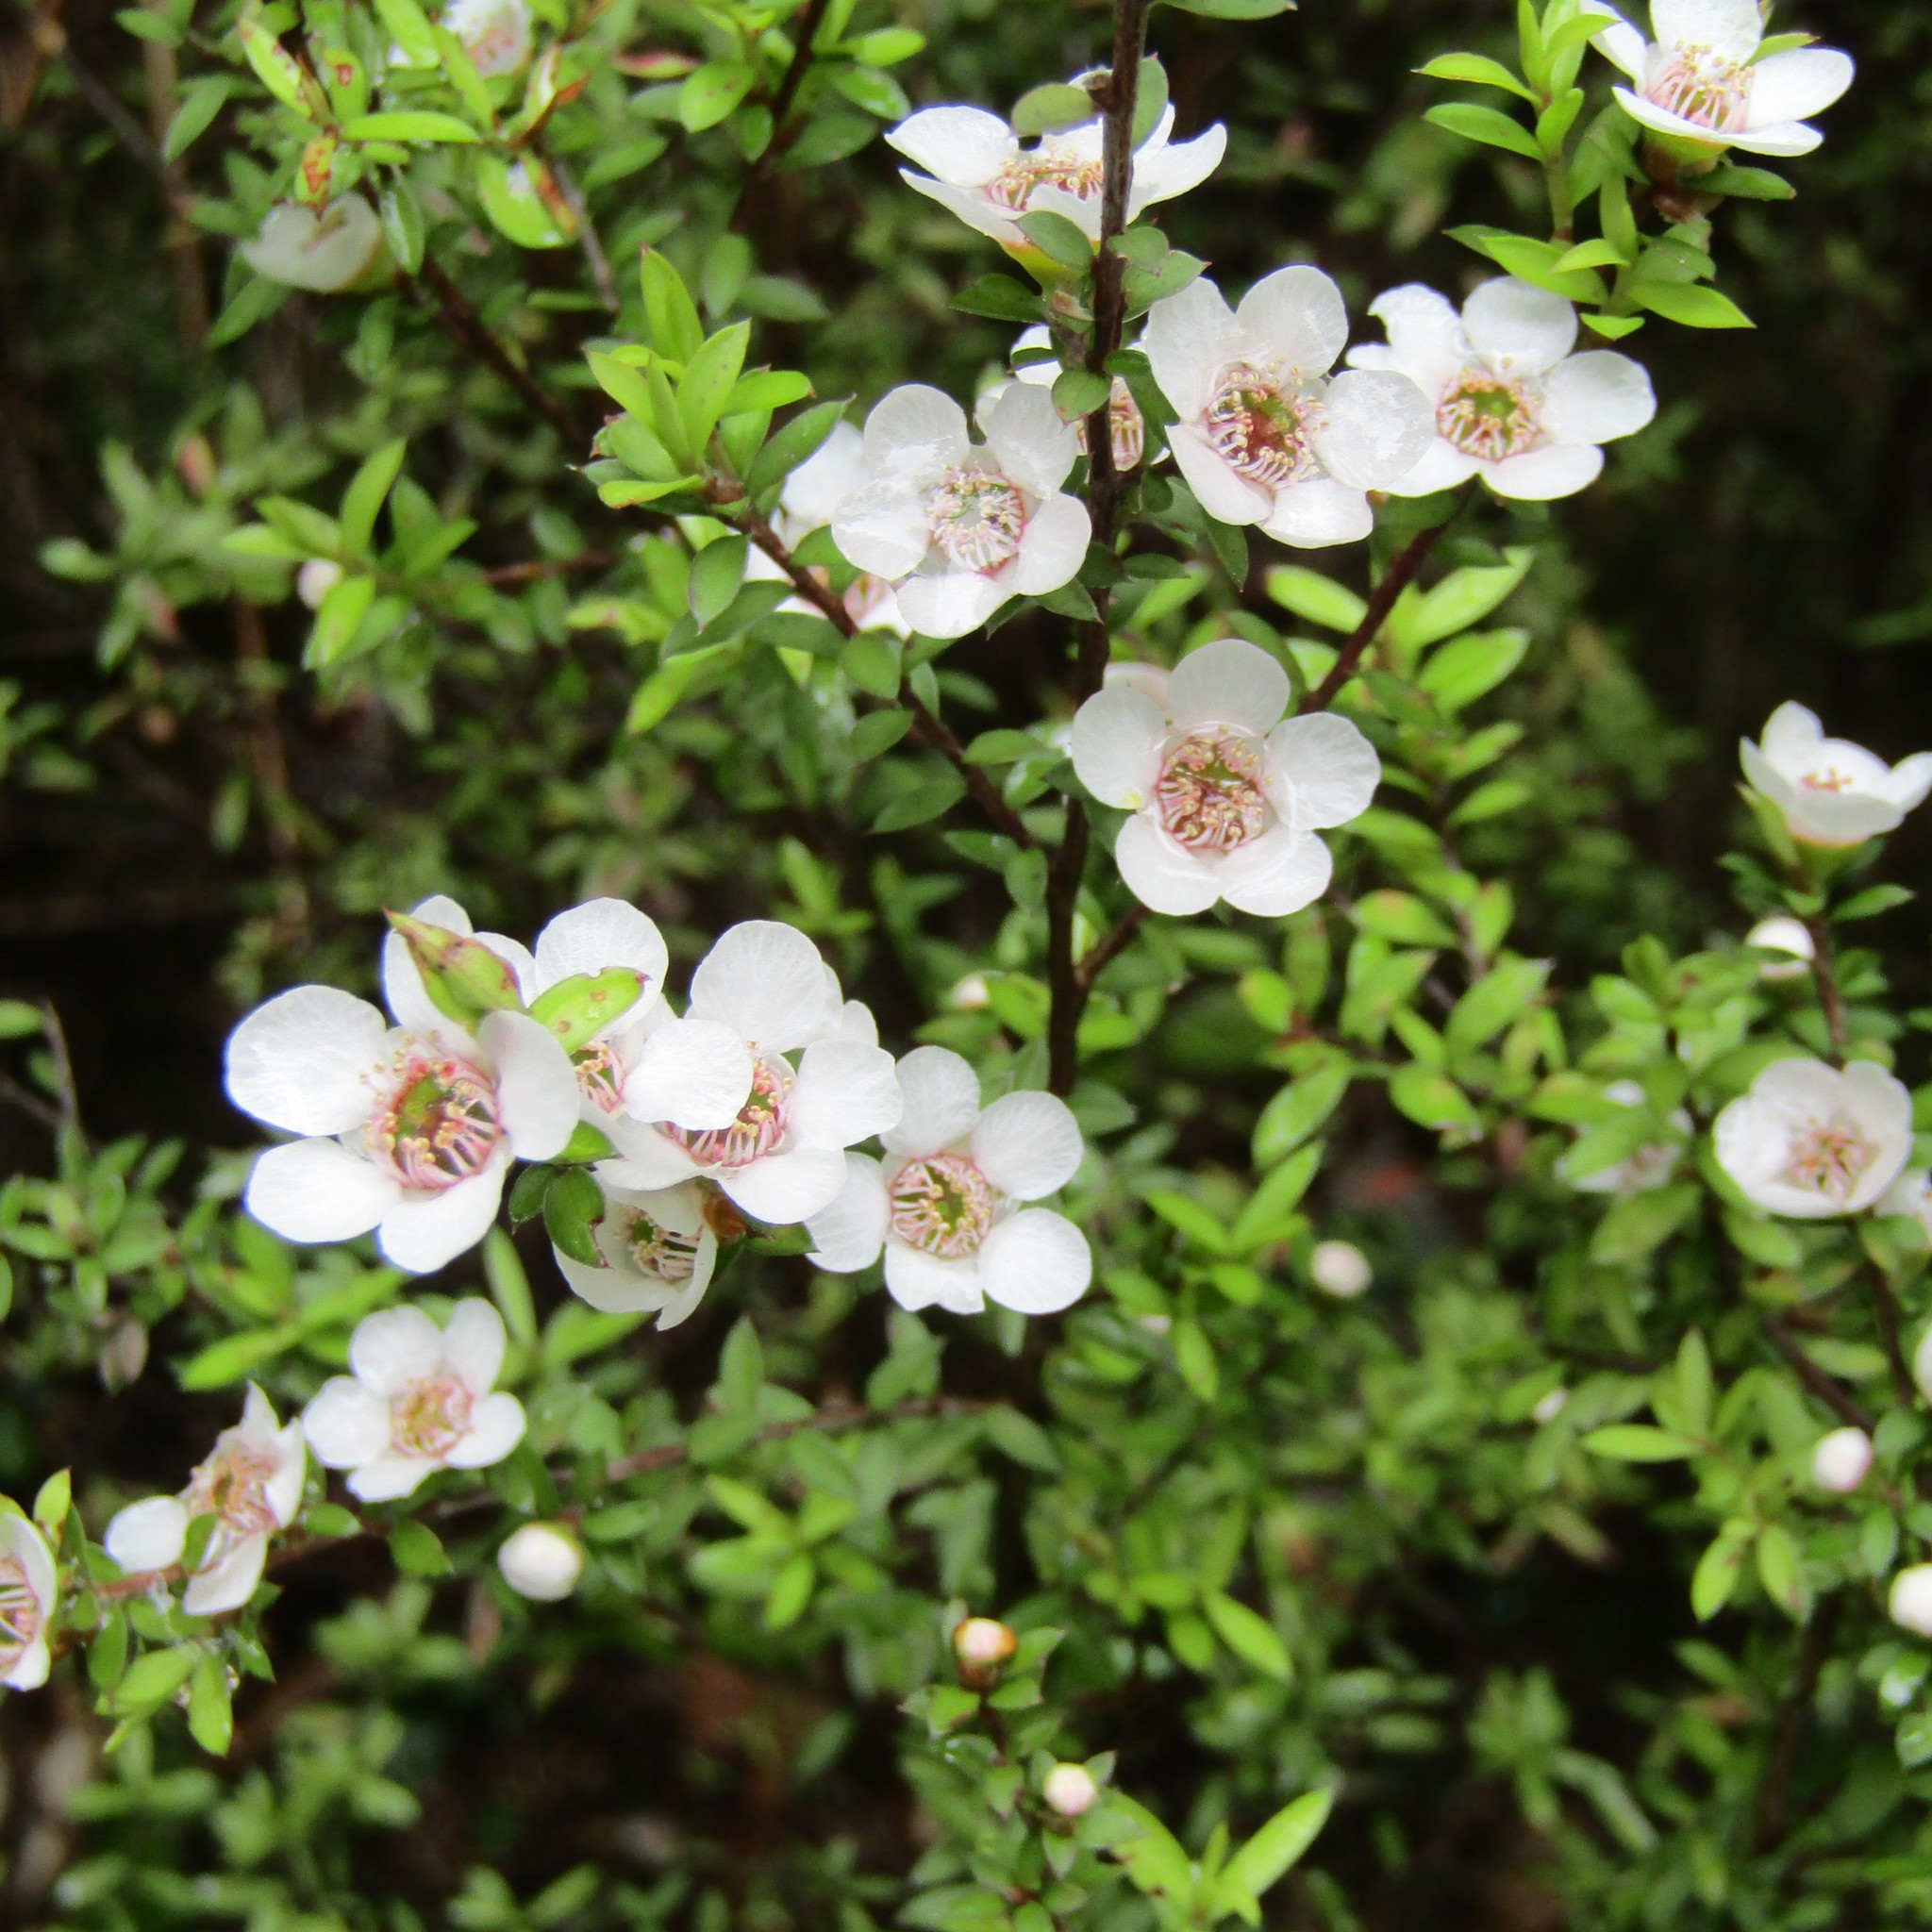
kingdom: Plantae
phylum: Tracheophyta
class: Magnoliopsida
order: Myrtales
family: Myrtaceae
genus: Leptospermum
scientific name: Leptospermum scoparium
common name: Broom tea-tree
